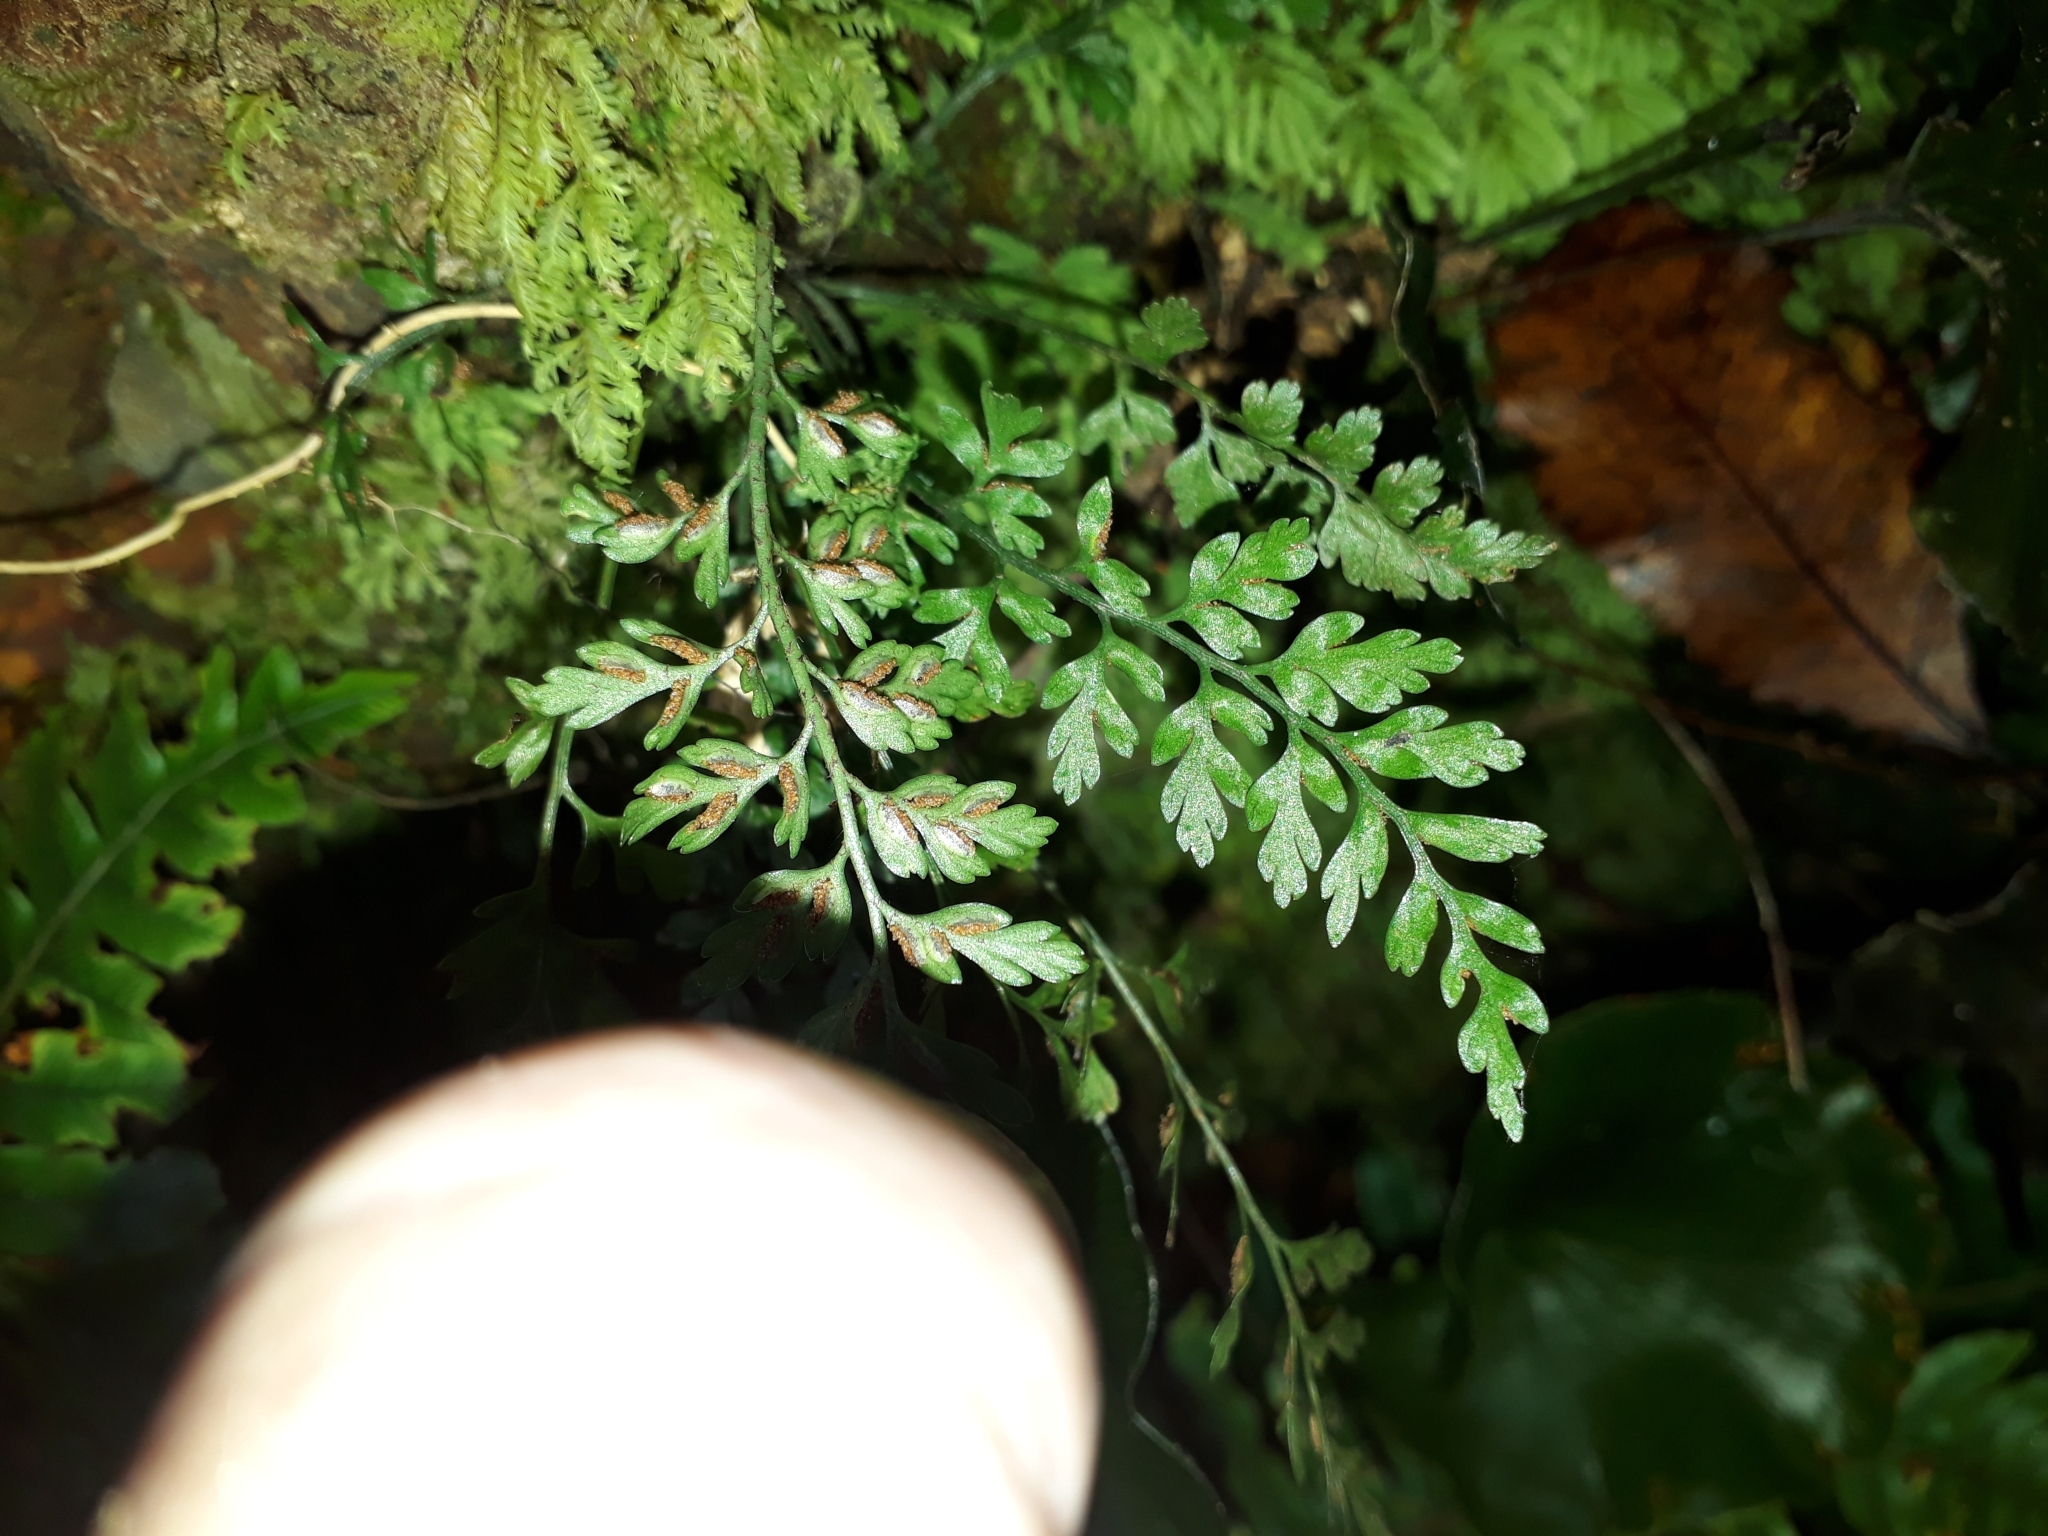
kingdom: Plantae
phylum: Tracheophyta
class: Polypodiopsida
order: Polypodiales
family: Aspleniaceae
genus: Asplenium
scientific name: Asplenium hookerianum
